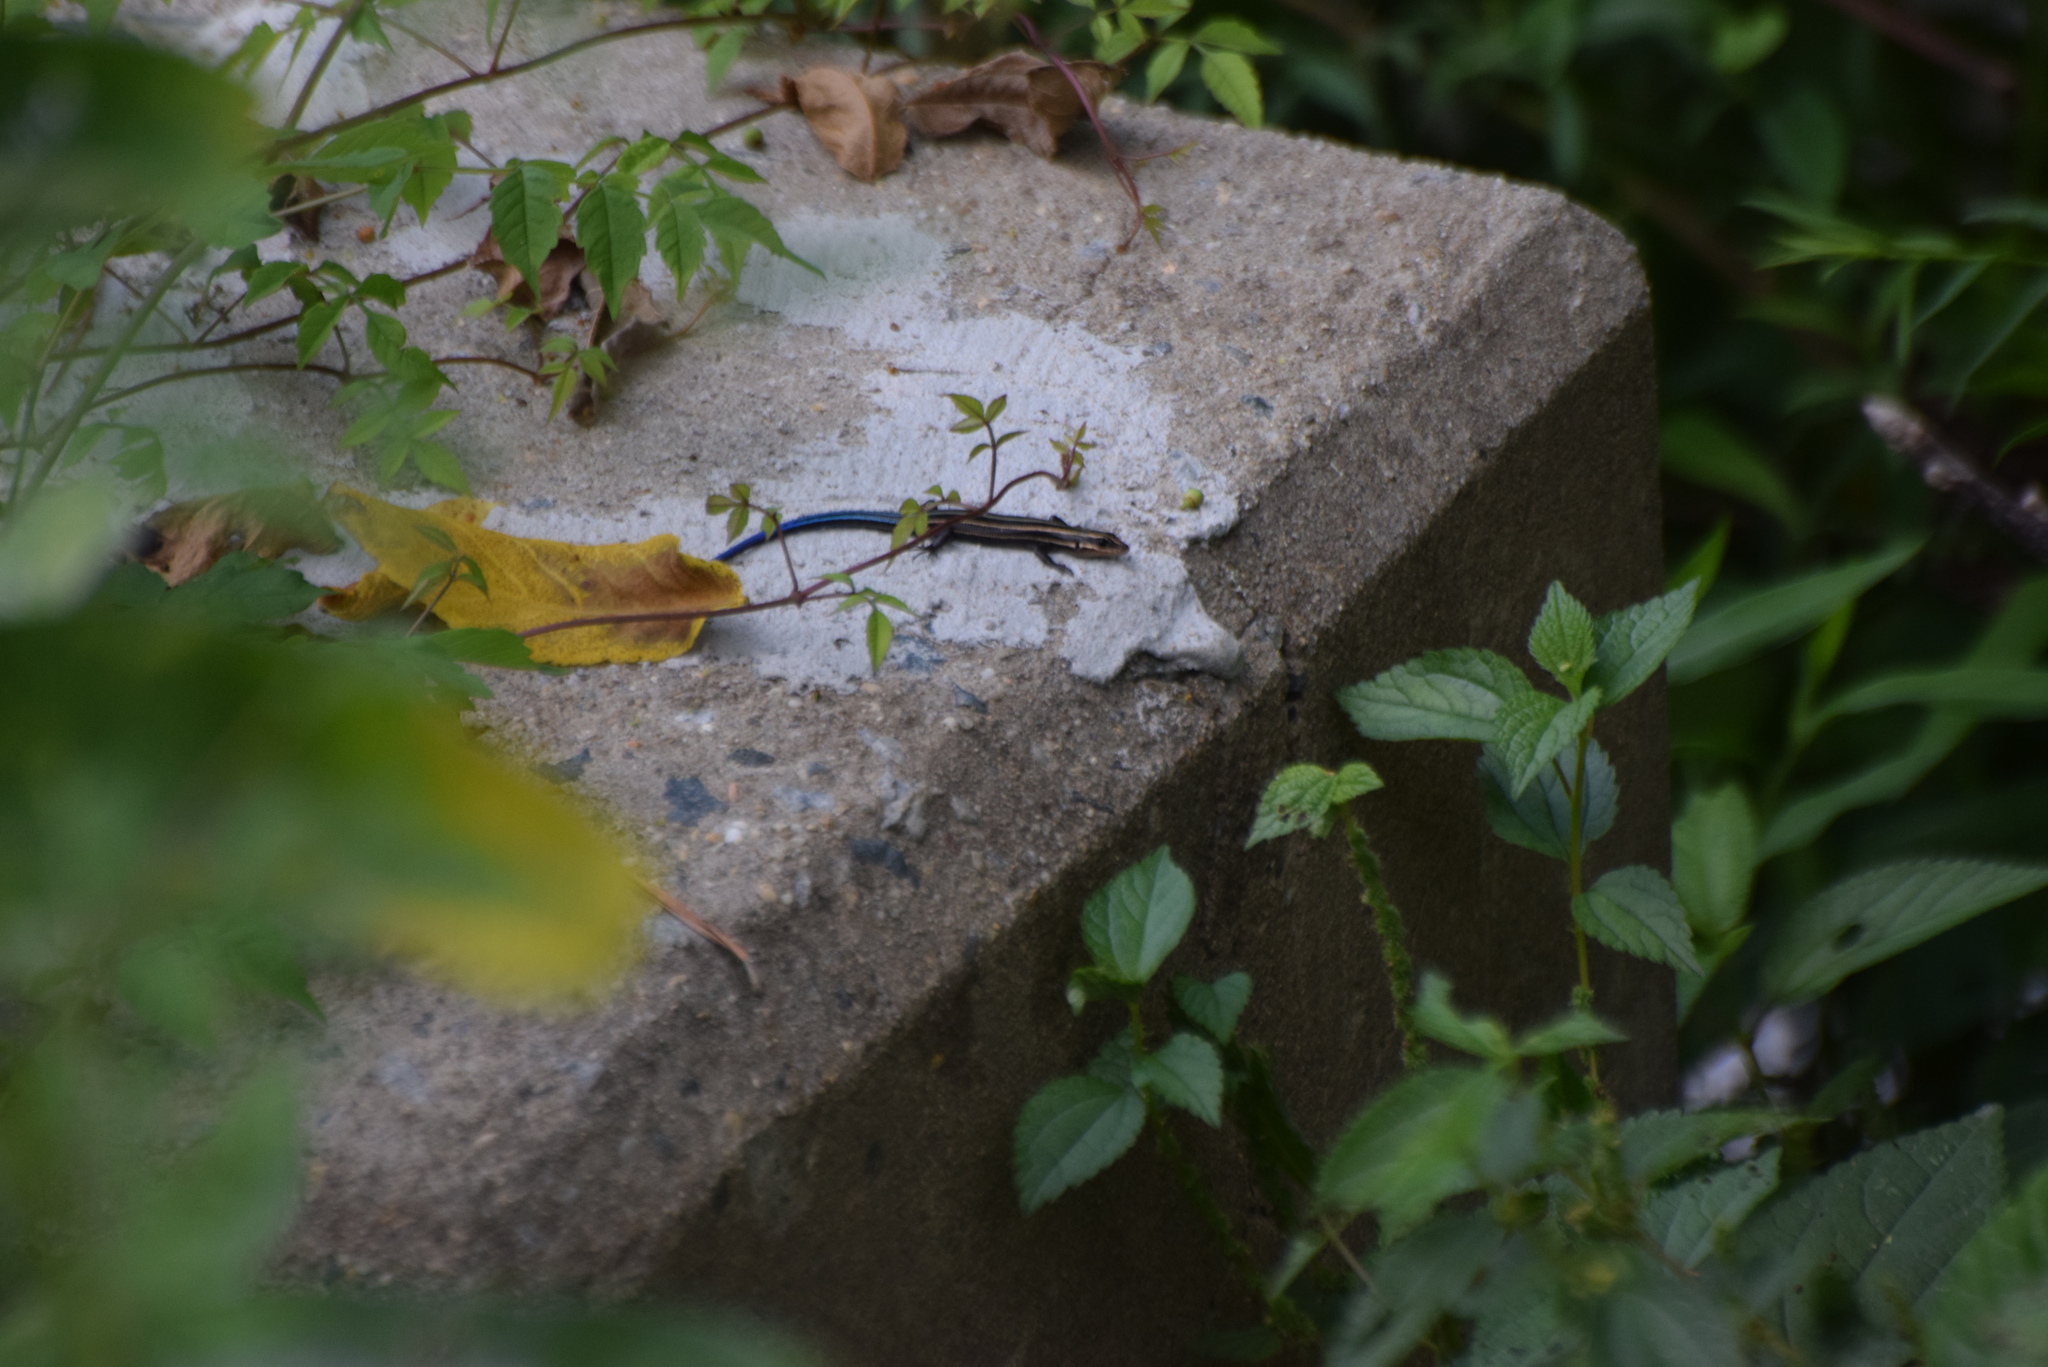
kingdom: Animalia
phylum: Chordata
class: Squamata
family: Scincidae
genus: Plestiodon
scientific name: Plestiodon fasciatus
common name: Five-lined skink
